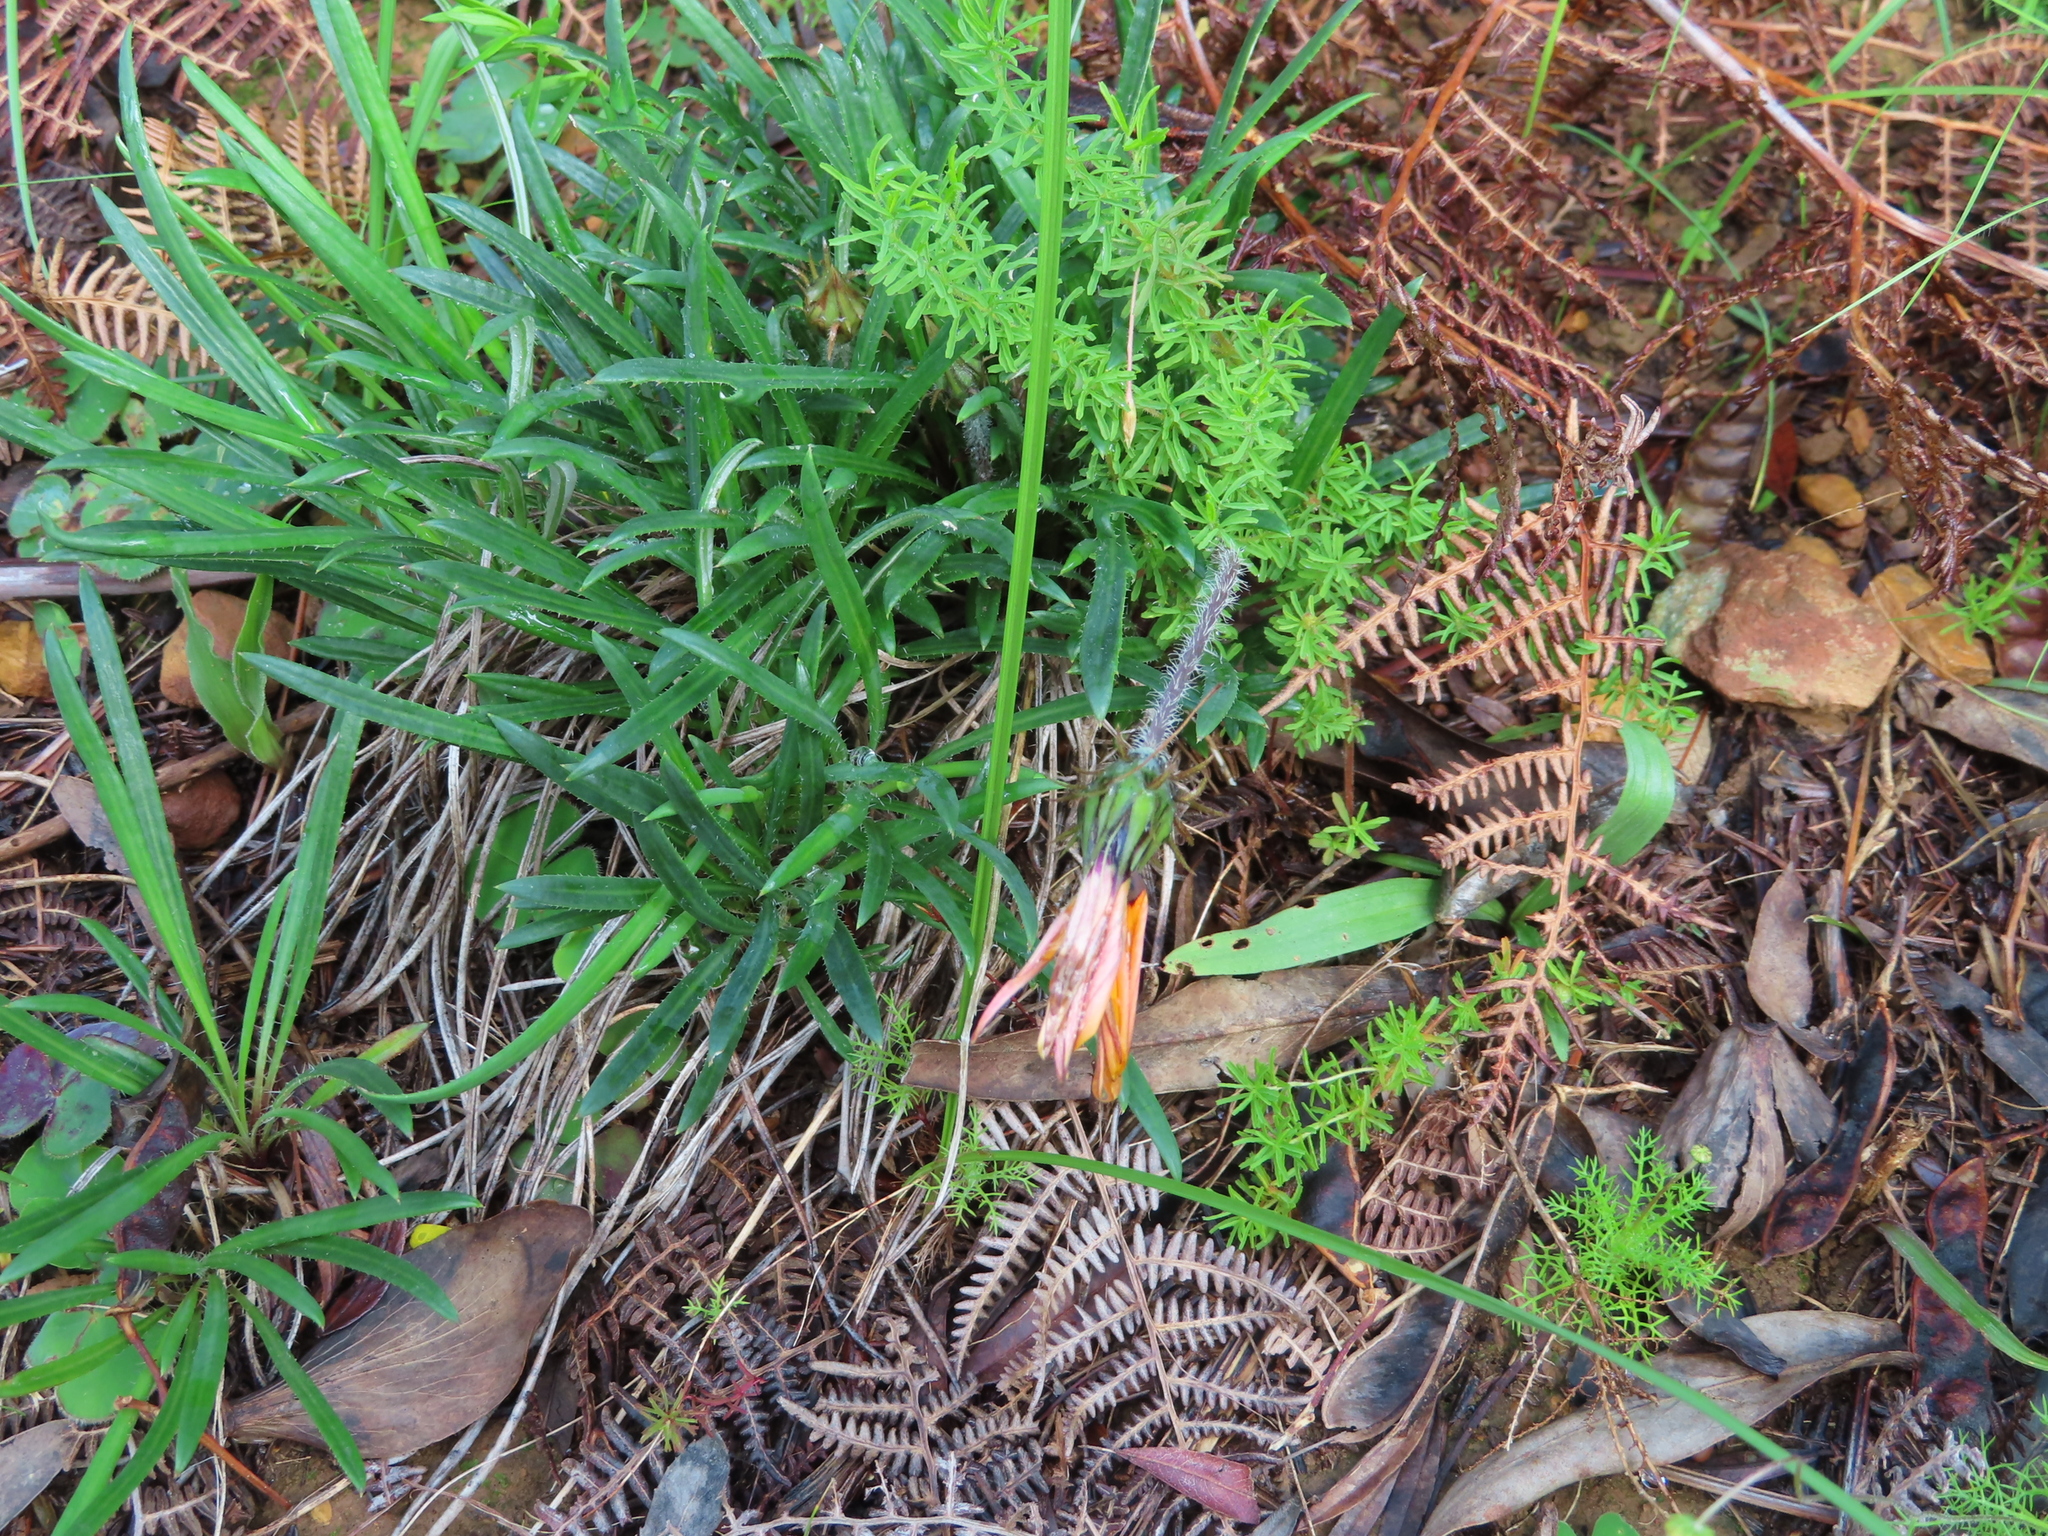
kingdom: Plantae
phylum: Tracheophyta
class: Magnoliopsida
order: Asterales
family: Asteraceae
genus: Gazania
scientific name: Gazania ciliaris
